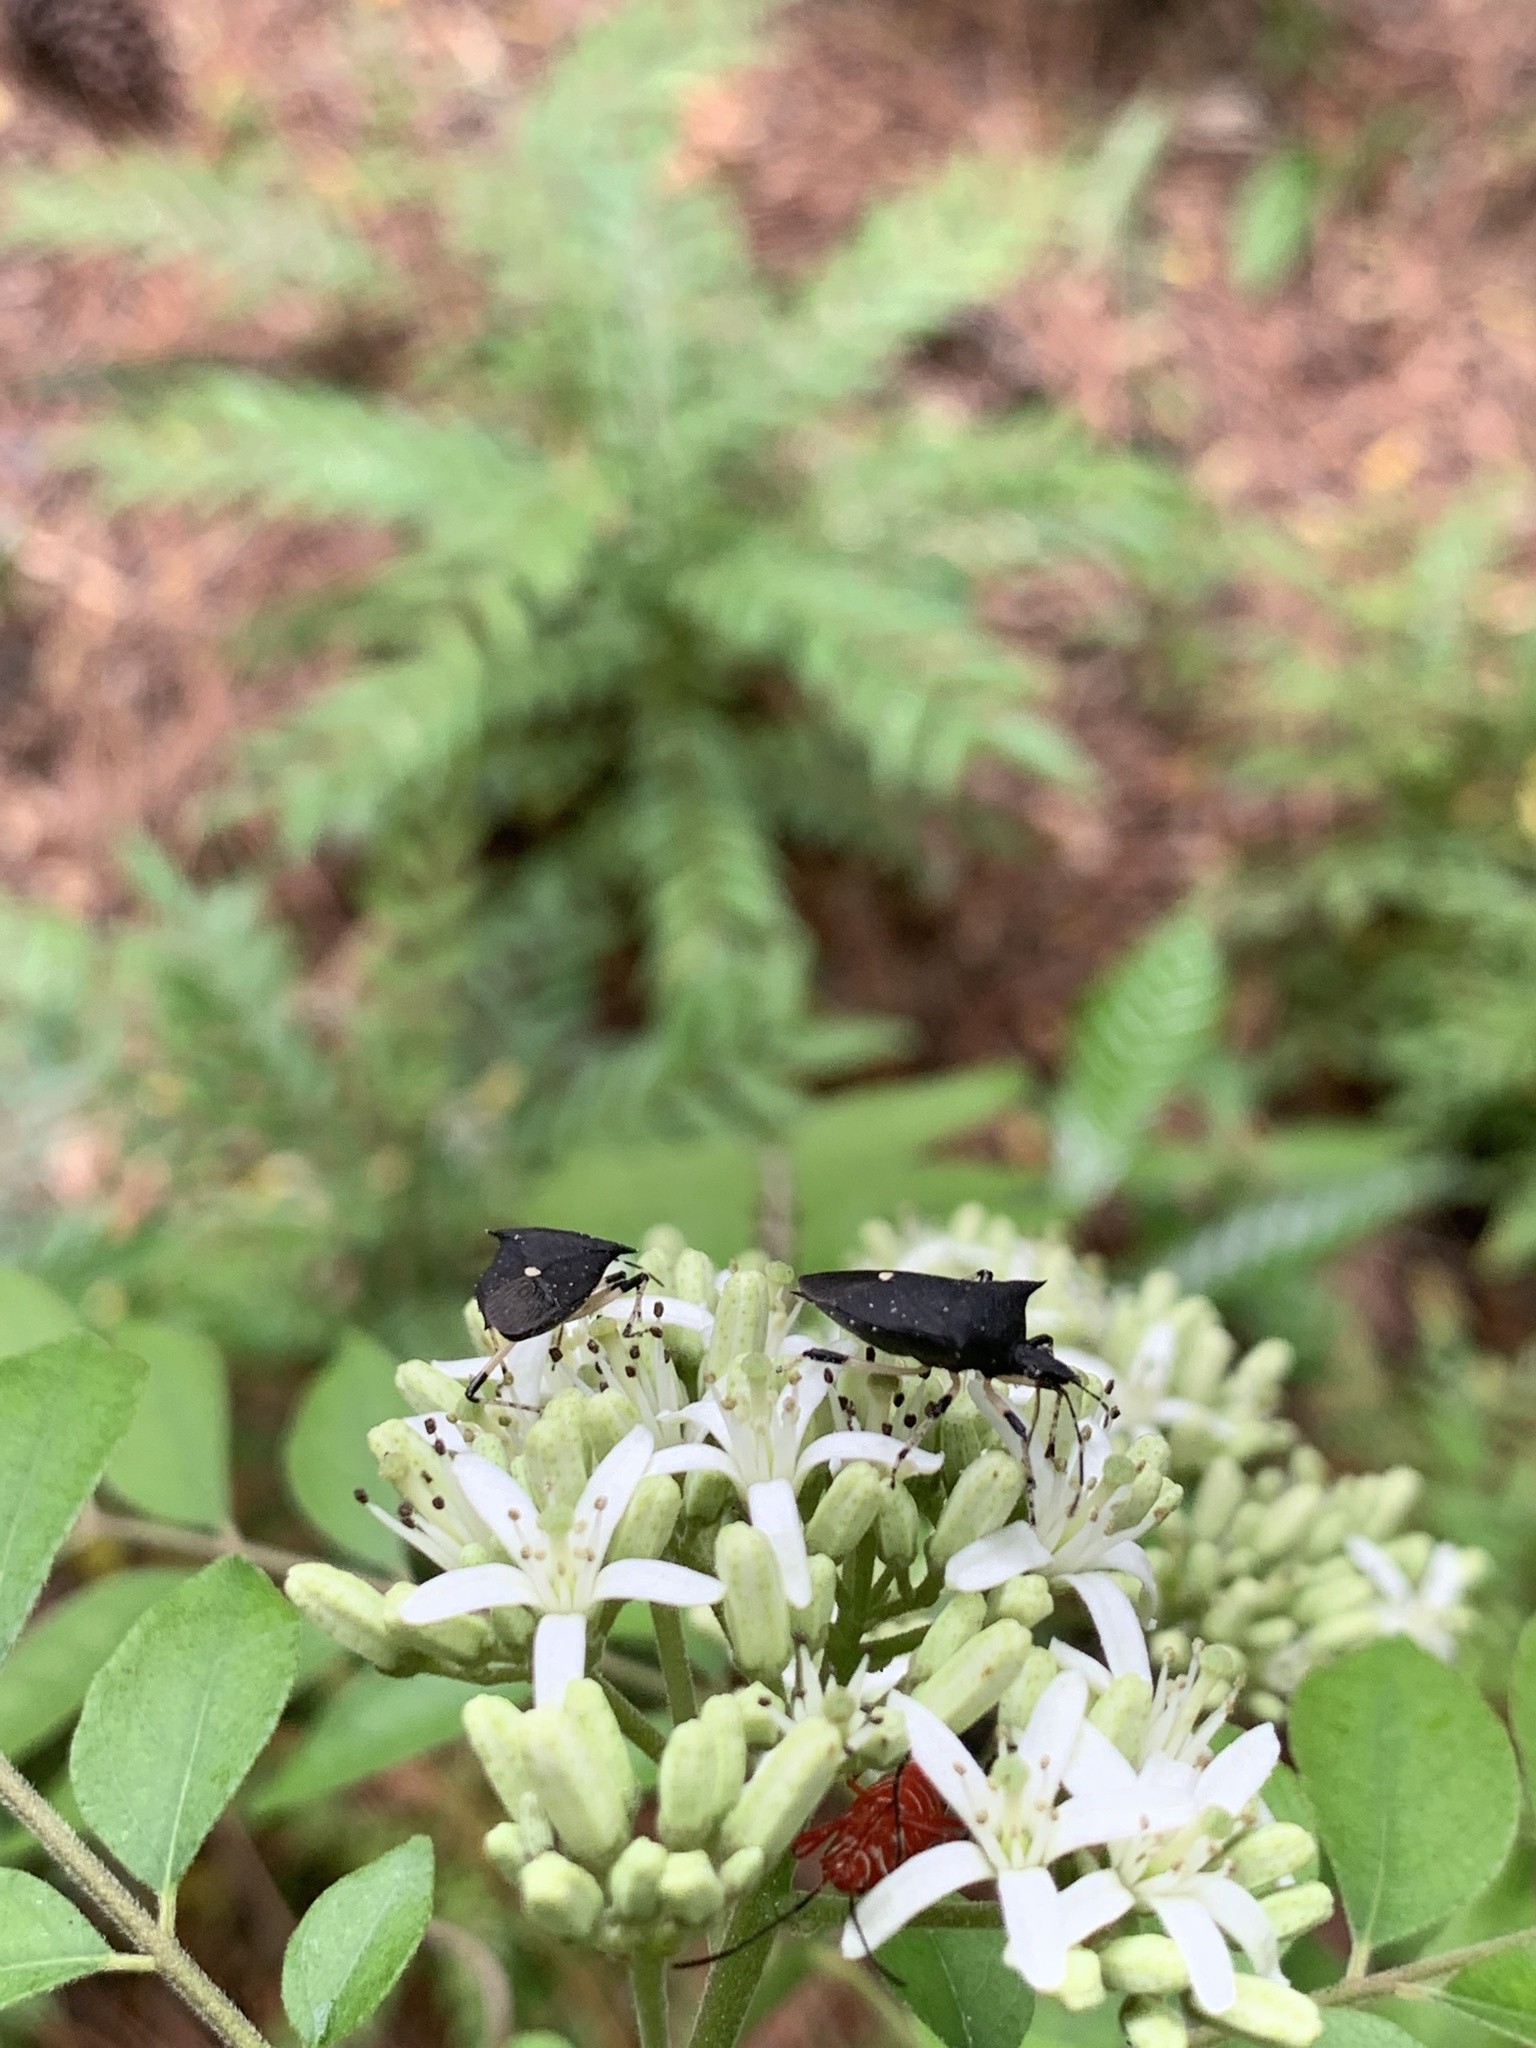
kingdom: Animalia
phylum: Arthropoda
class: Insecta
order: Hemiptera
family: Pentatomidae
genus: Proxys
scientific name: Proxys punctulatus
